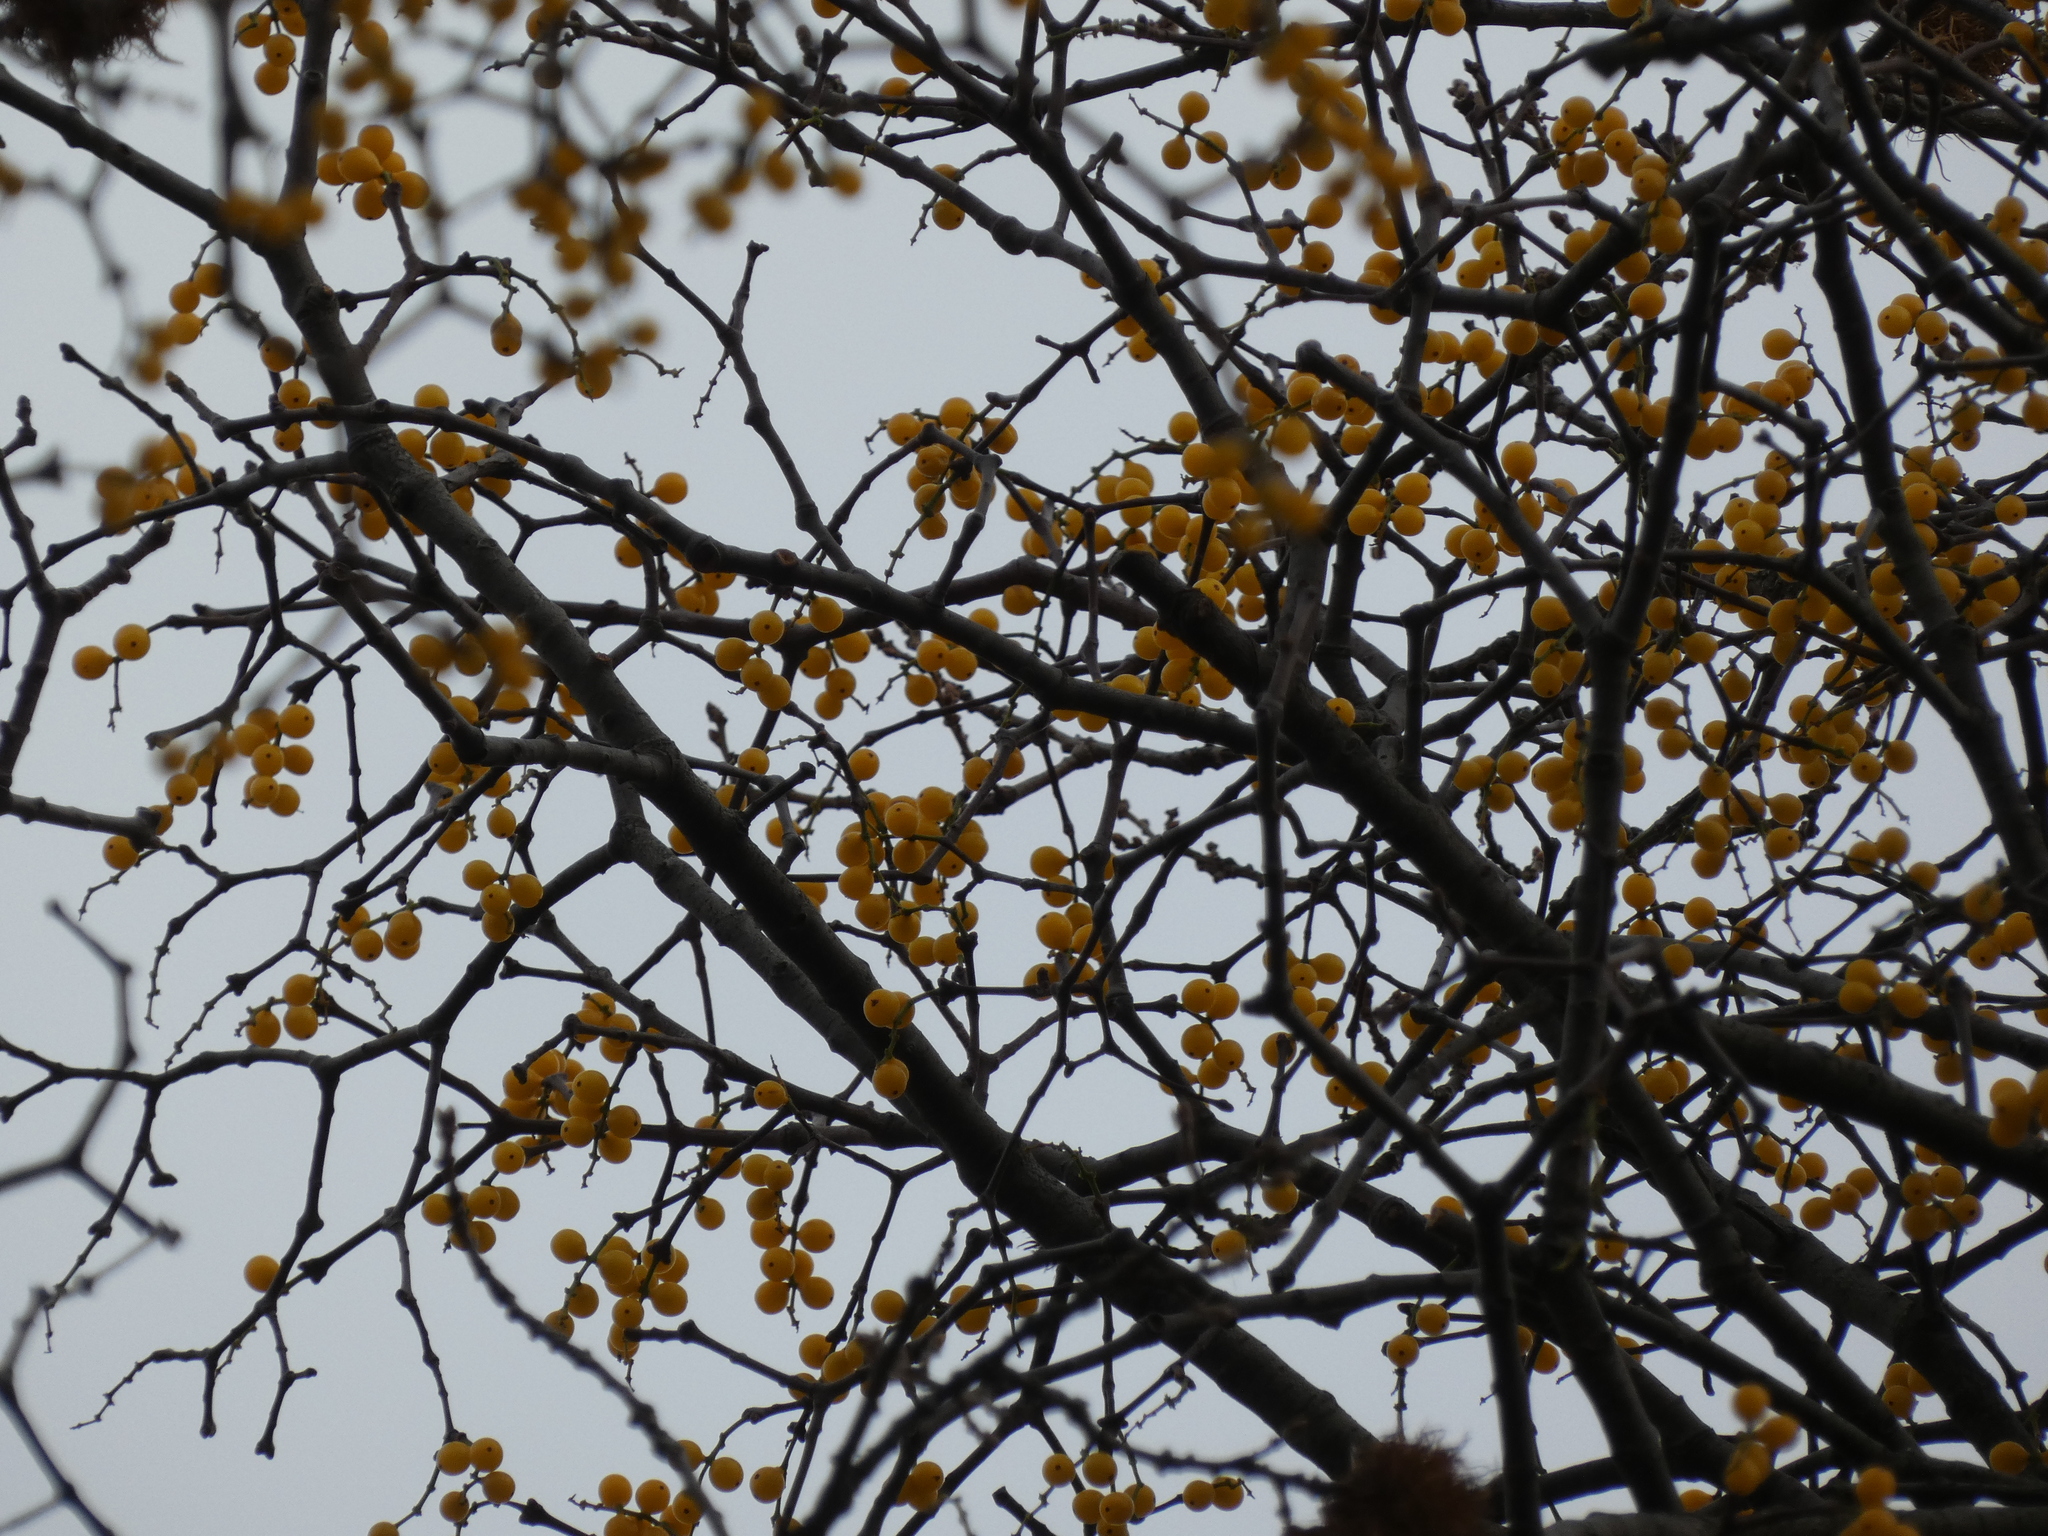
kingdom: Plantae
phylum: Tracheophyta
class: Magnoliopsida
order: Santalales
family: Loranthaceae
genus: Loranthus
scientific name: Loranthus europaeus
